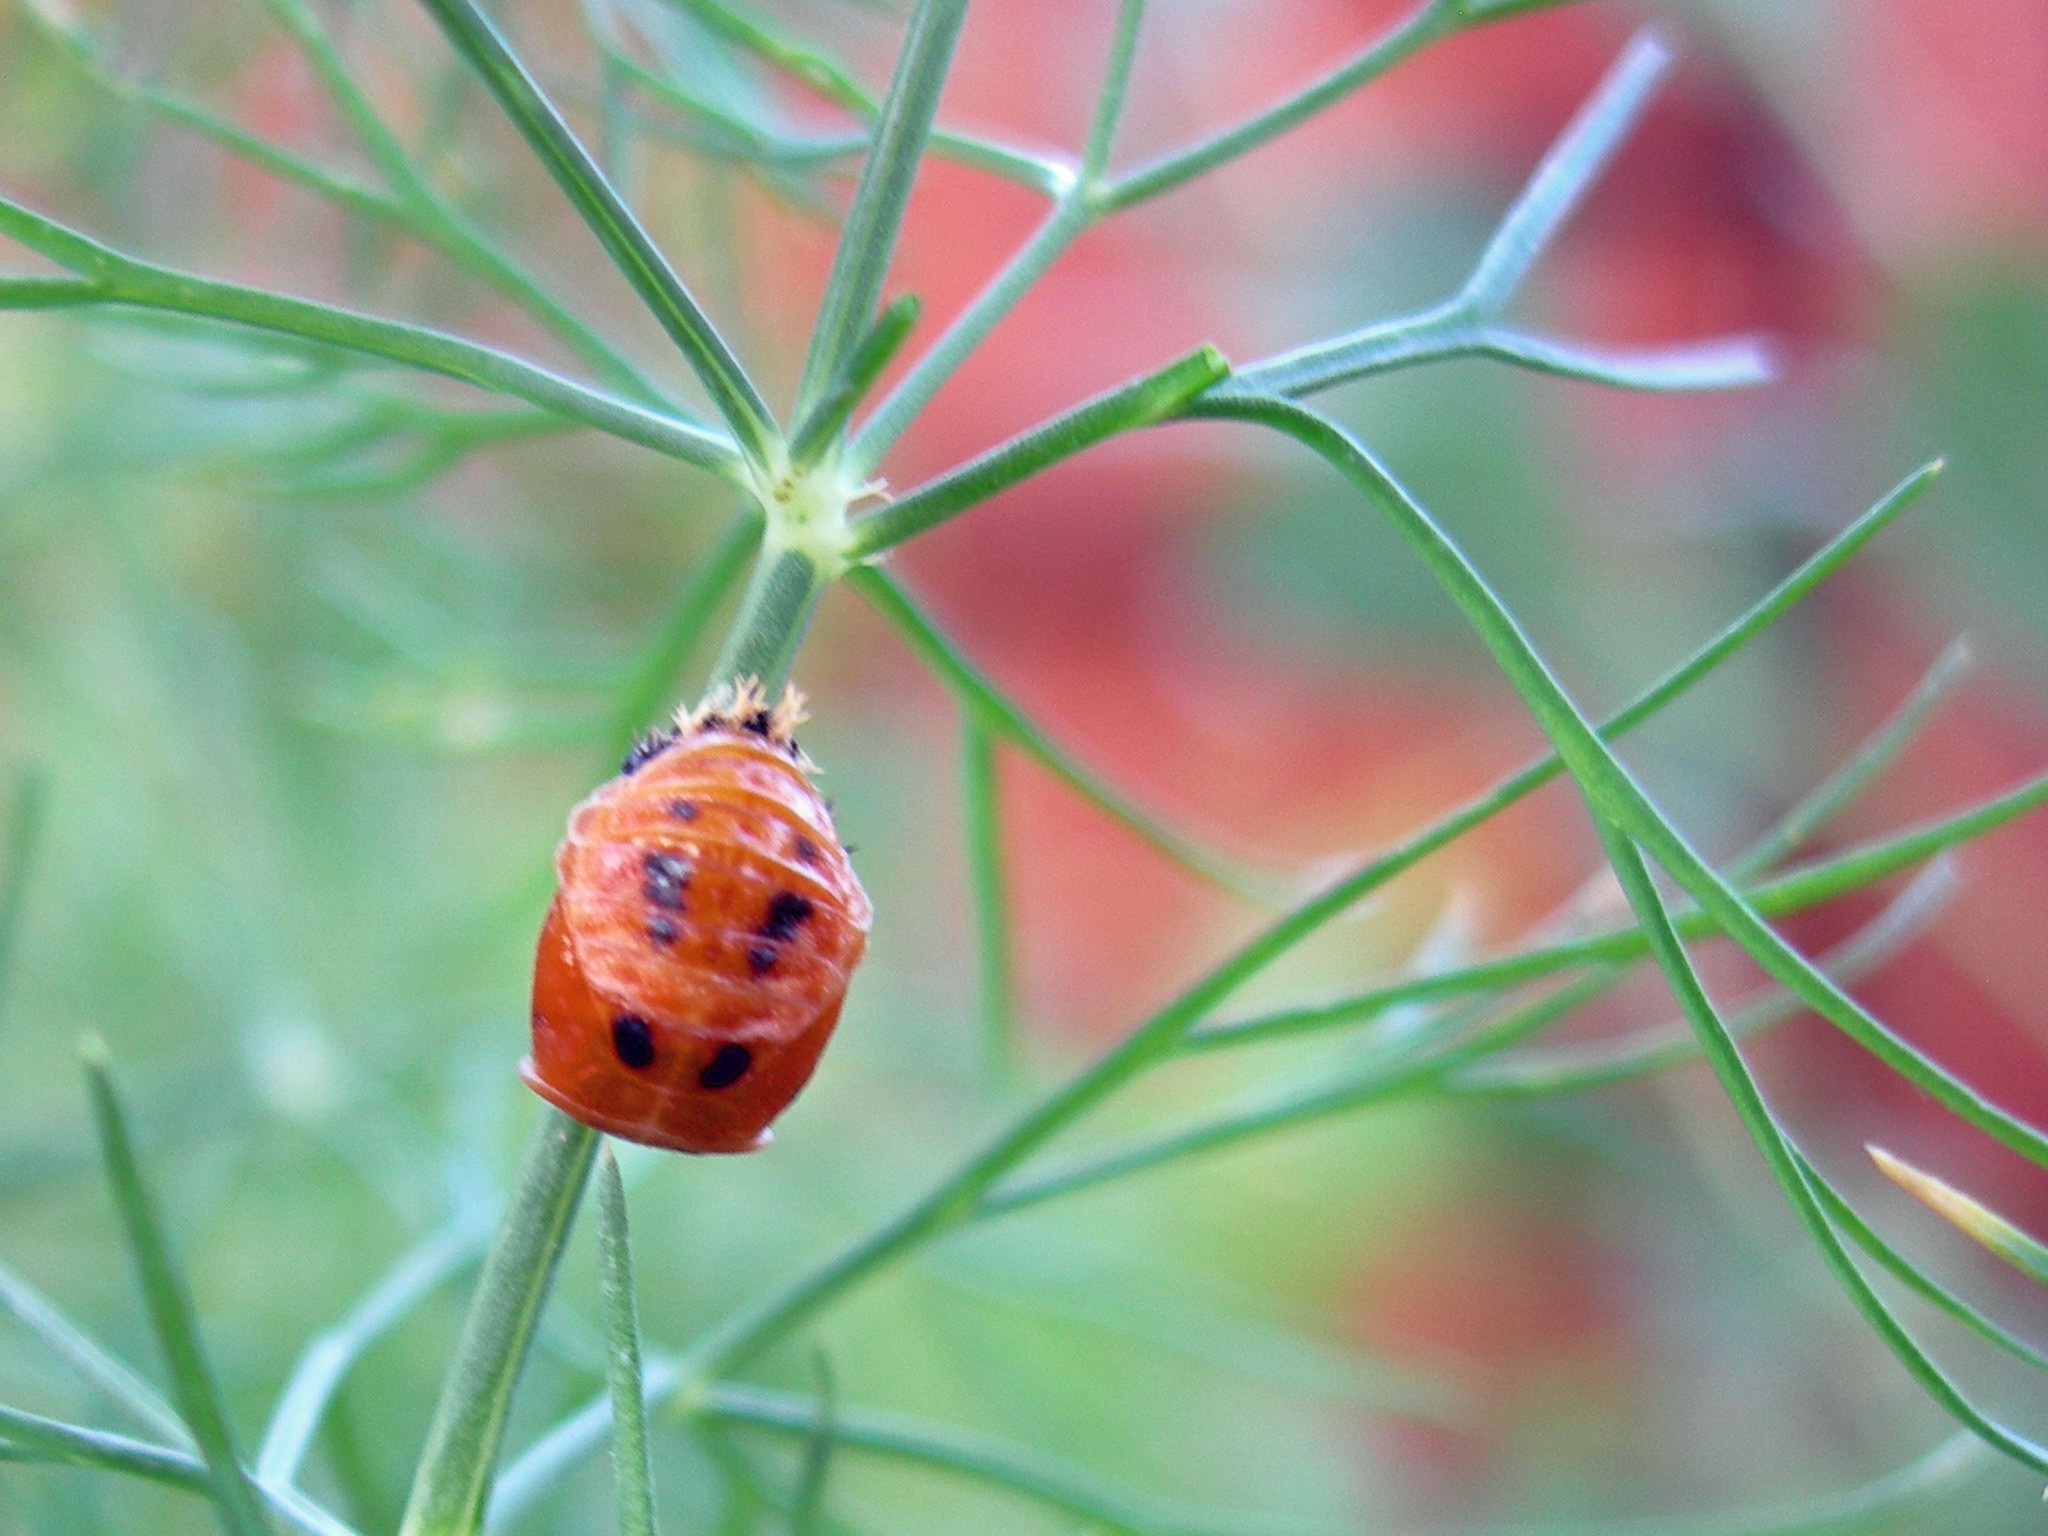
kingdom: Animalia
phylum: Arthropoda
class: Insecta
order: Coleoptera
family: Coccinellidae
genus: Harmonia
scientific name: Harmonia axyridis
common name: Harlequin ladybird
